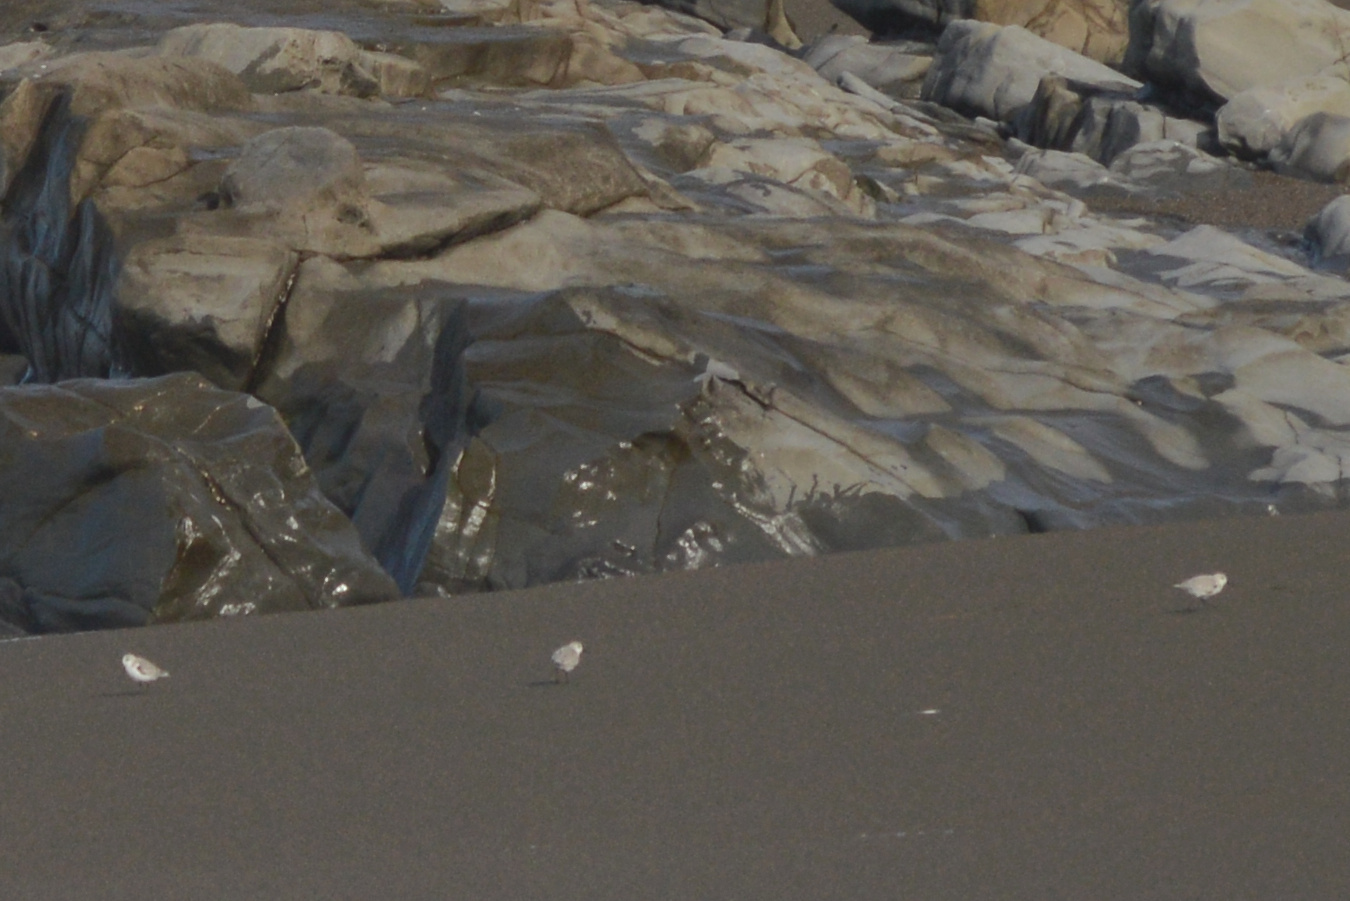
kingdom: Animalia
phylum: Chordata
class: Aves
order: Charadriiformes
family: Scolopacidae
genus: Calidris
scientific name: Calidris alba
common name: Sanderling
